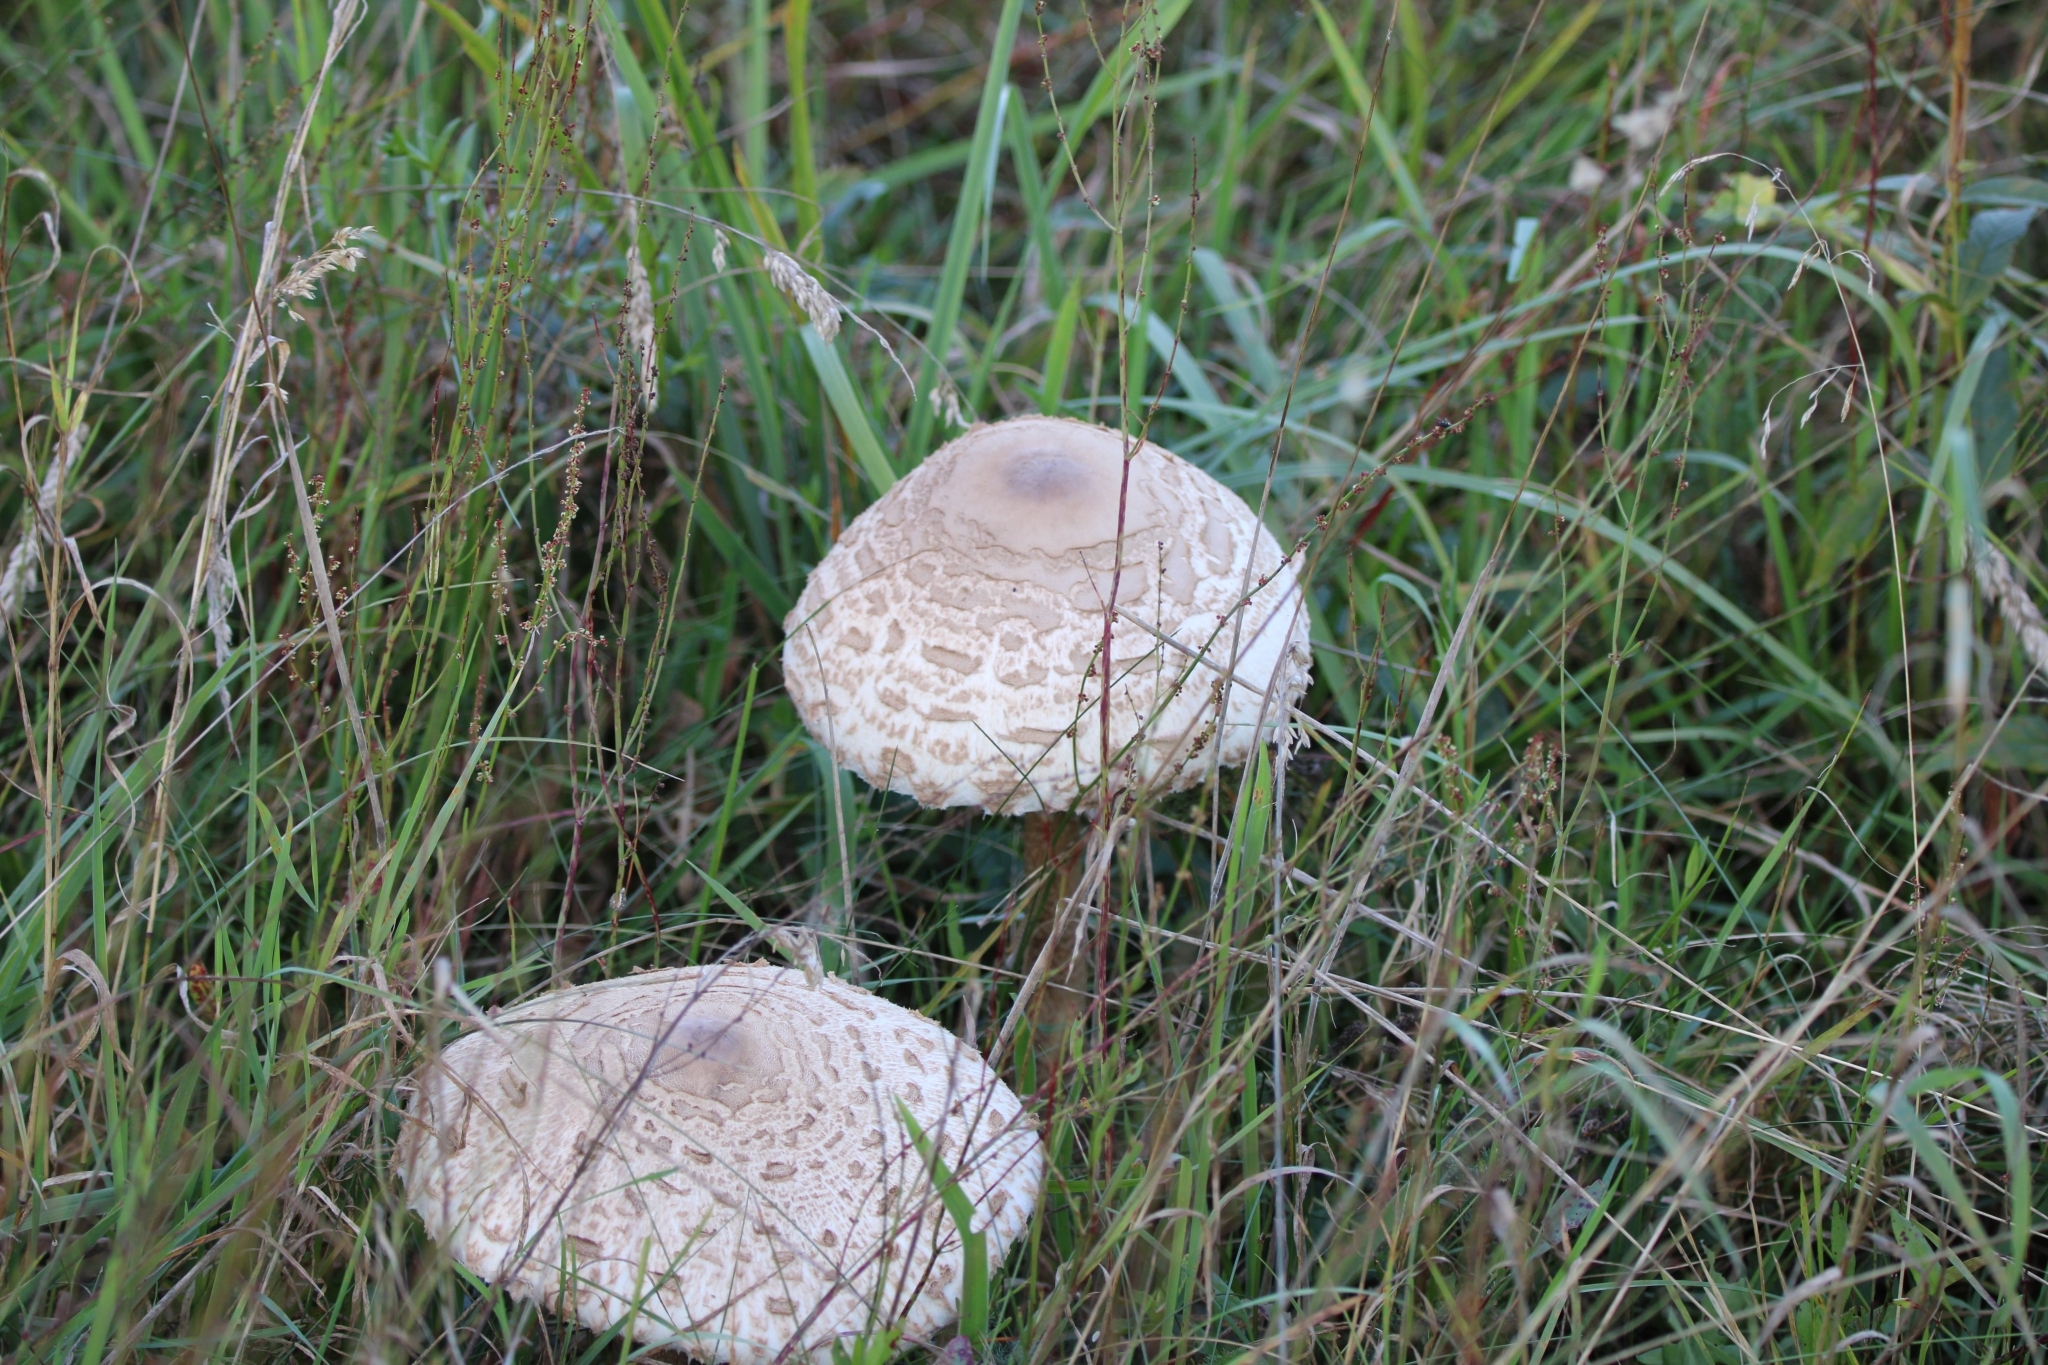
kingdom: Fungi
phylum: Basidiomycota
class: Agaricomycetes
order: Agaricales
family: Agaricaceae
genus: Macrolepiota
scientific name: Macrolepiota procera
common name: Parasol
